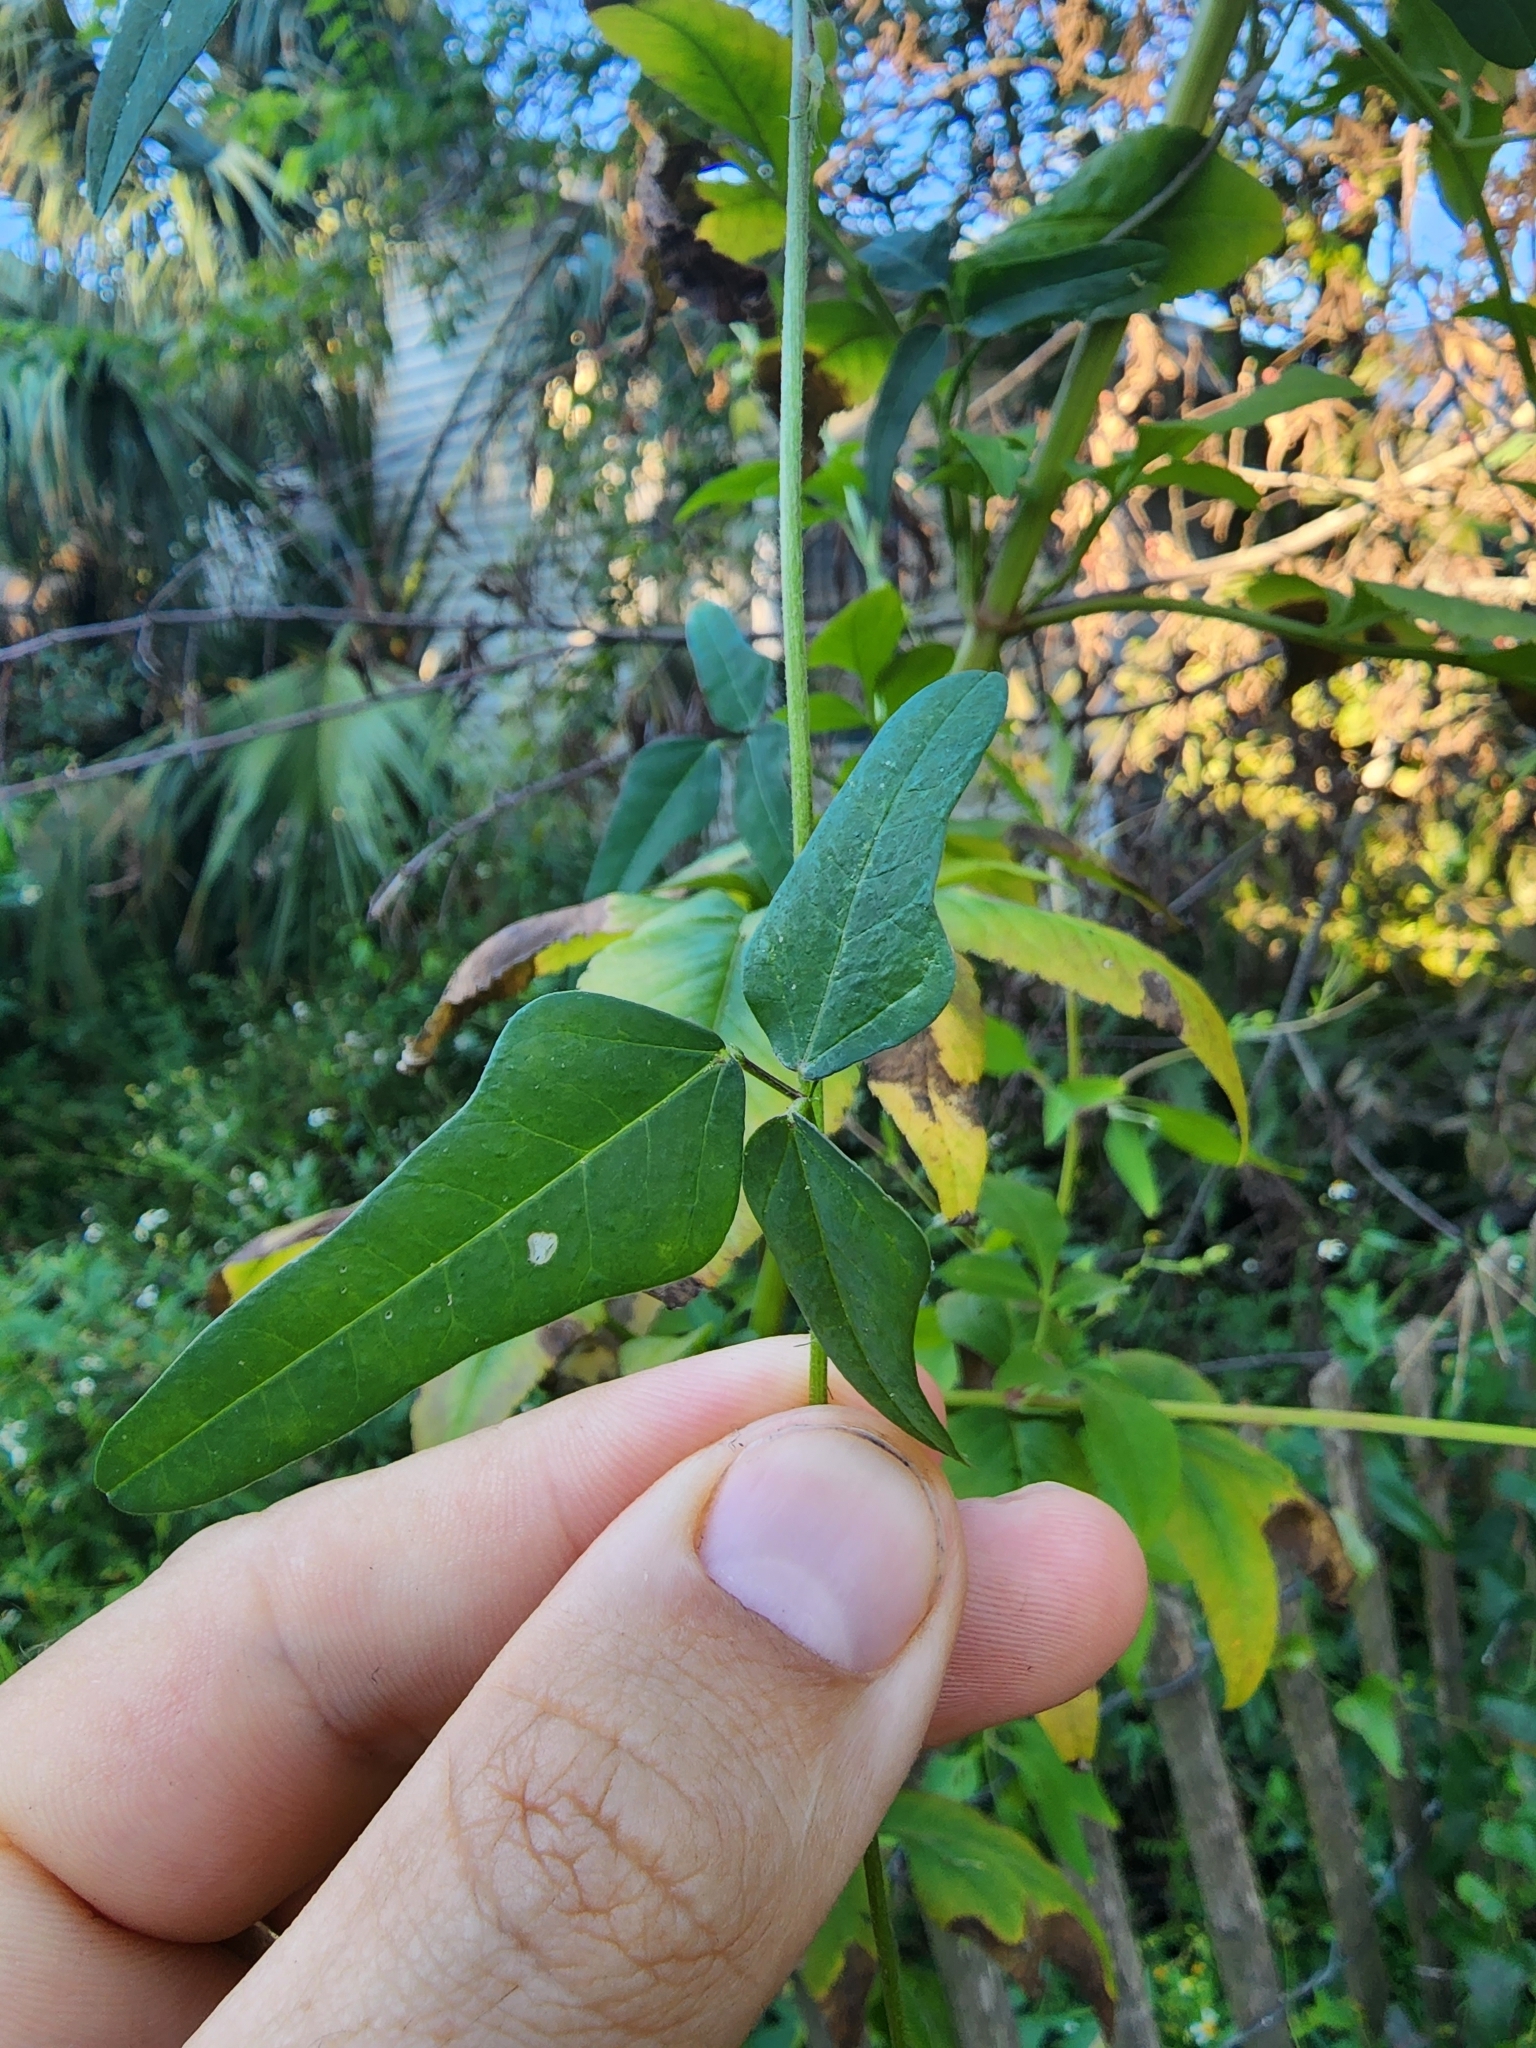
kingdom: Plantae
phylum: Tracheophyta
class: Magnoliopsida
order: Fabales
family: Fabaceae
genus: Macroptilium
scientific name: Macroptilium lathyroides
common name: Wild bushbean
